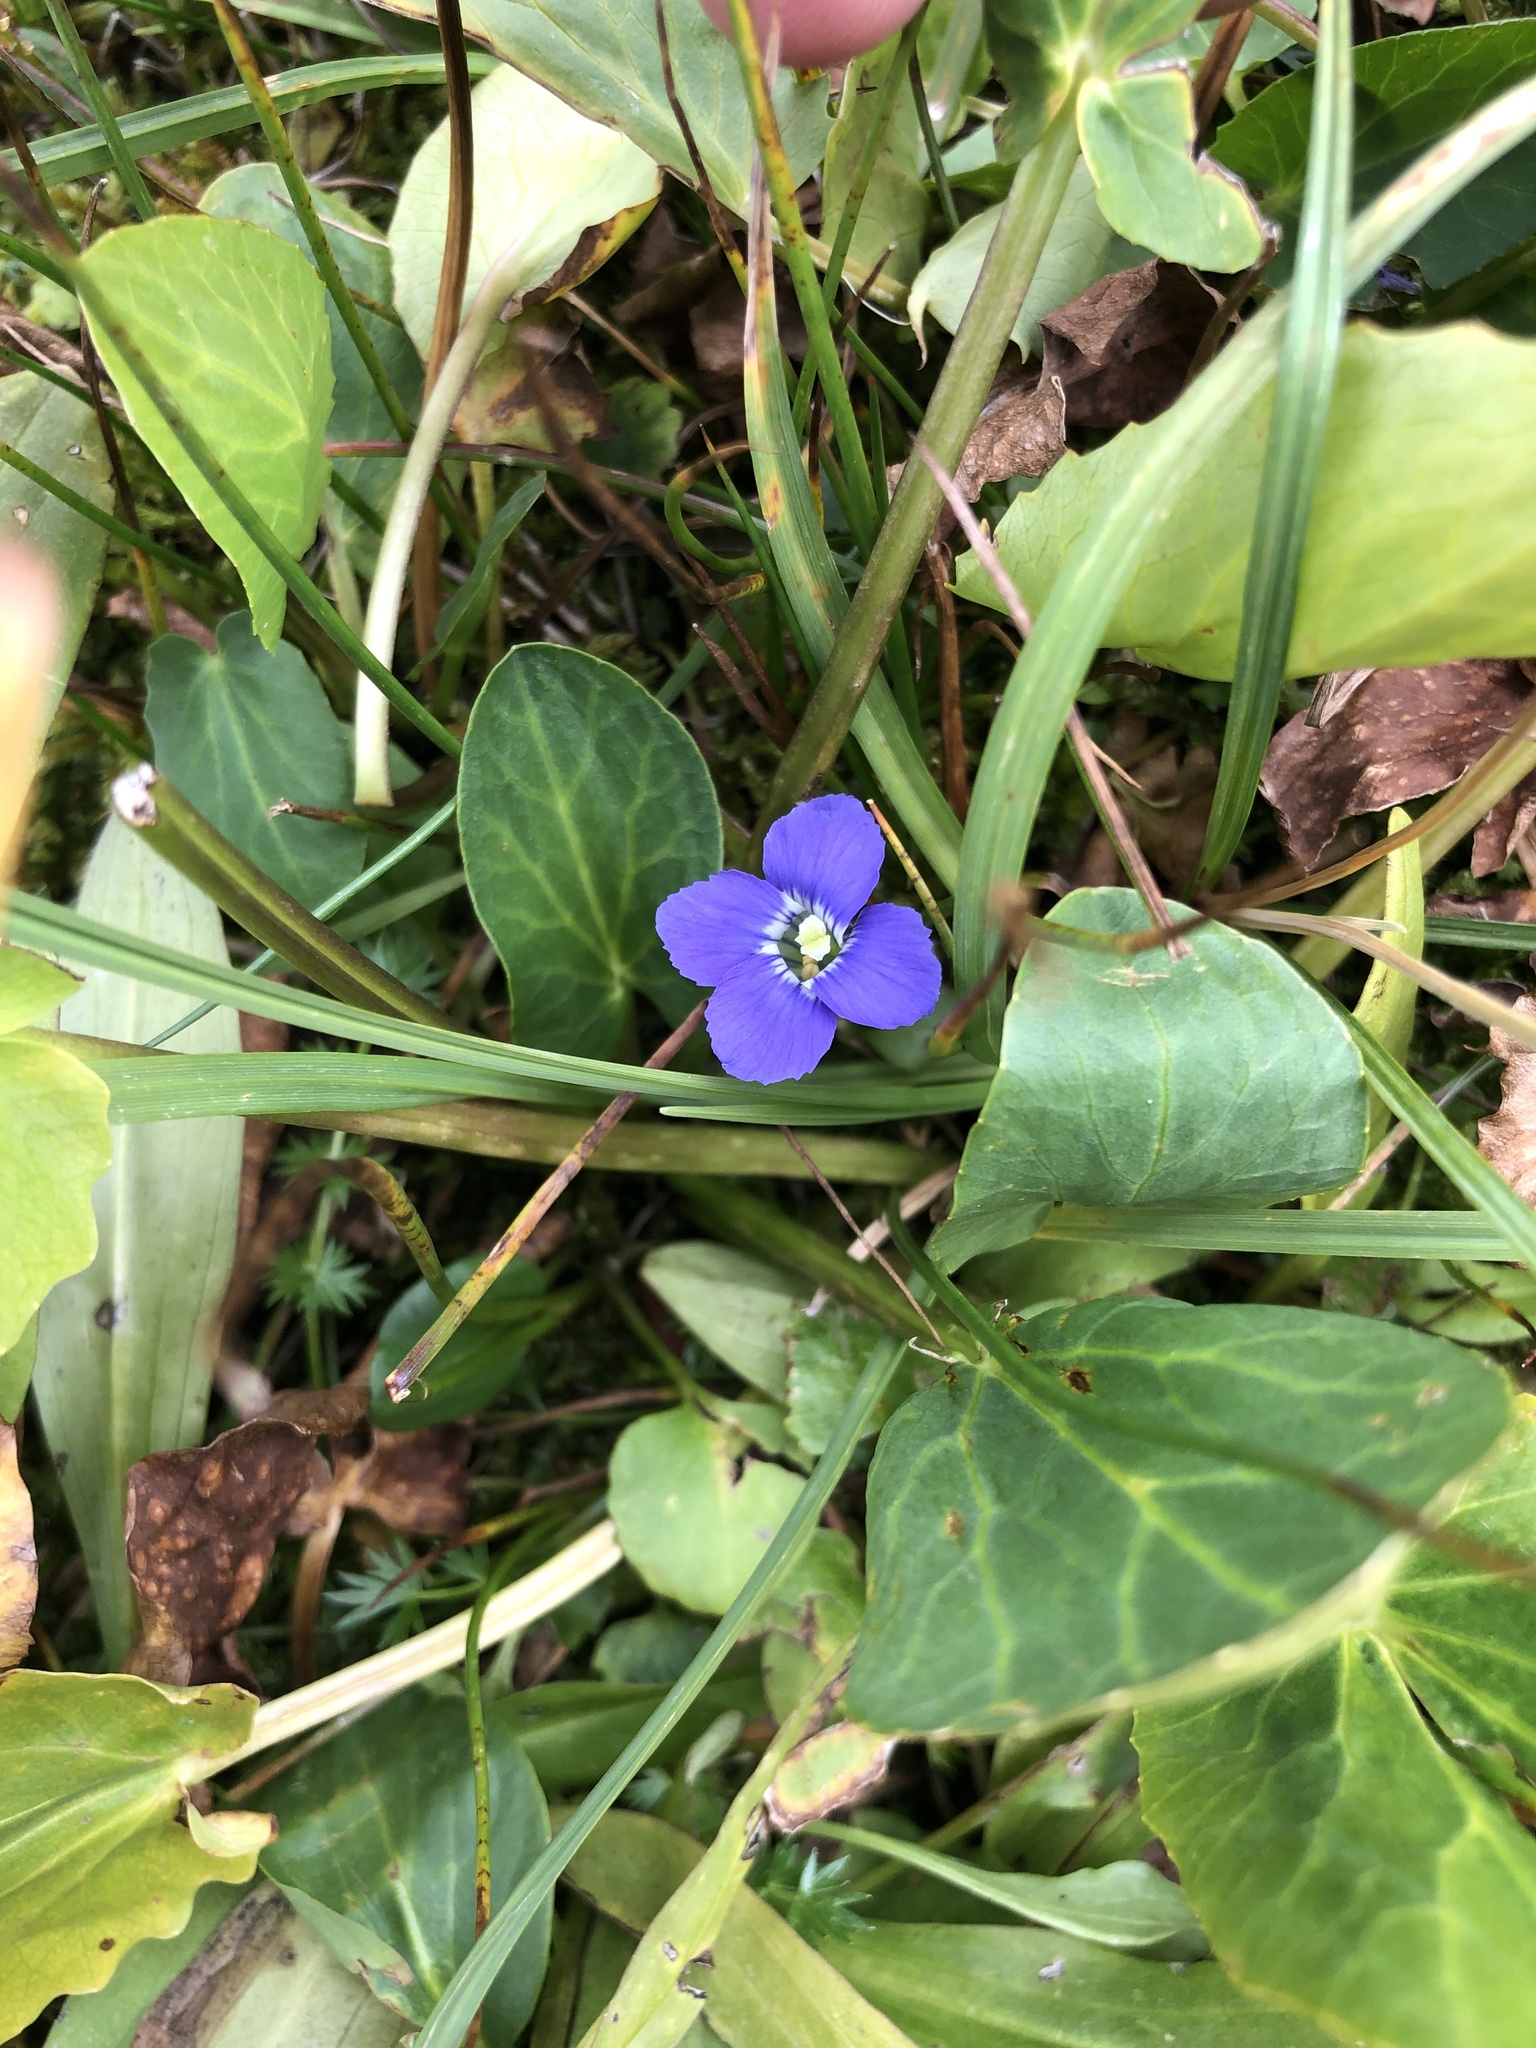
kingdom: Plantae
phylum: Tracheophyta
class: Magnoliopsida
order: Gentianales
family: Gentianaceae
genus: Gentianopsis
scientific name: Gentianopsis thermalis
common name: Rocky mountain fringed-gentian
